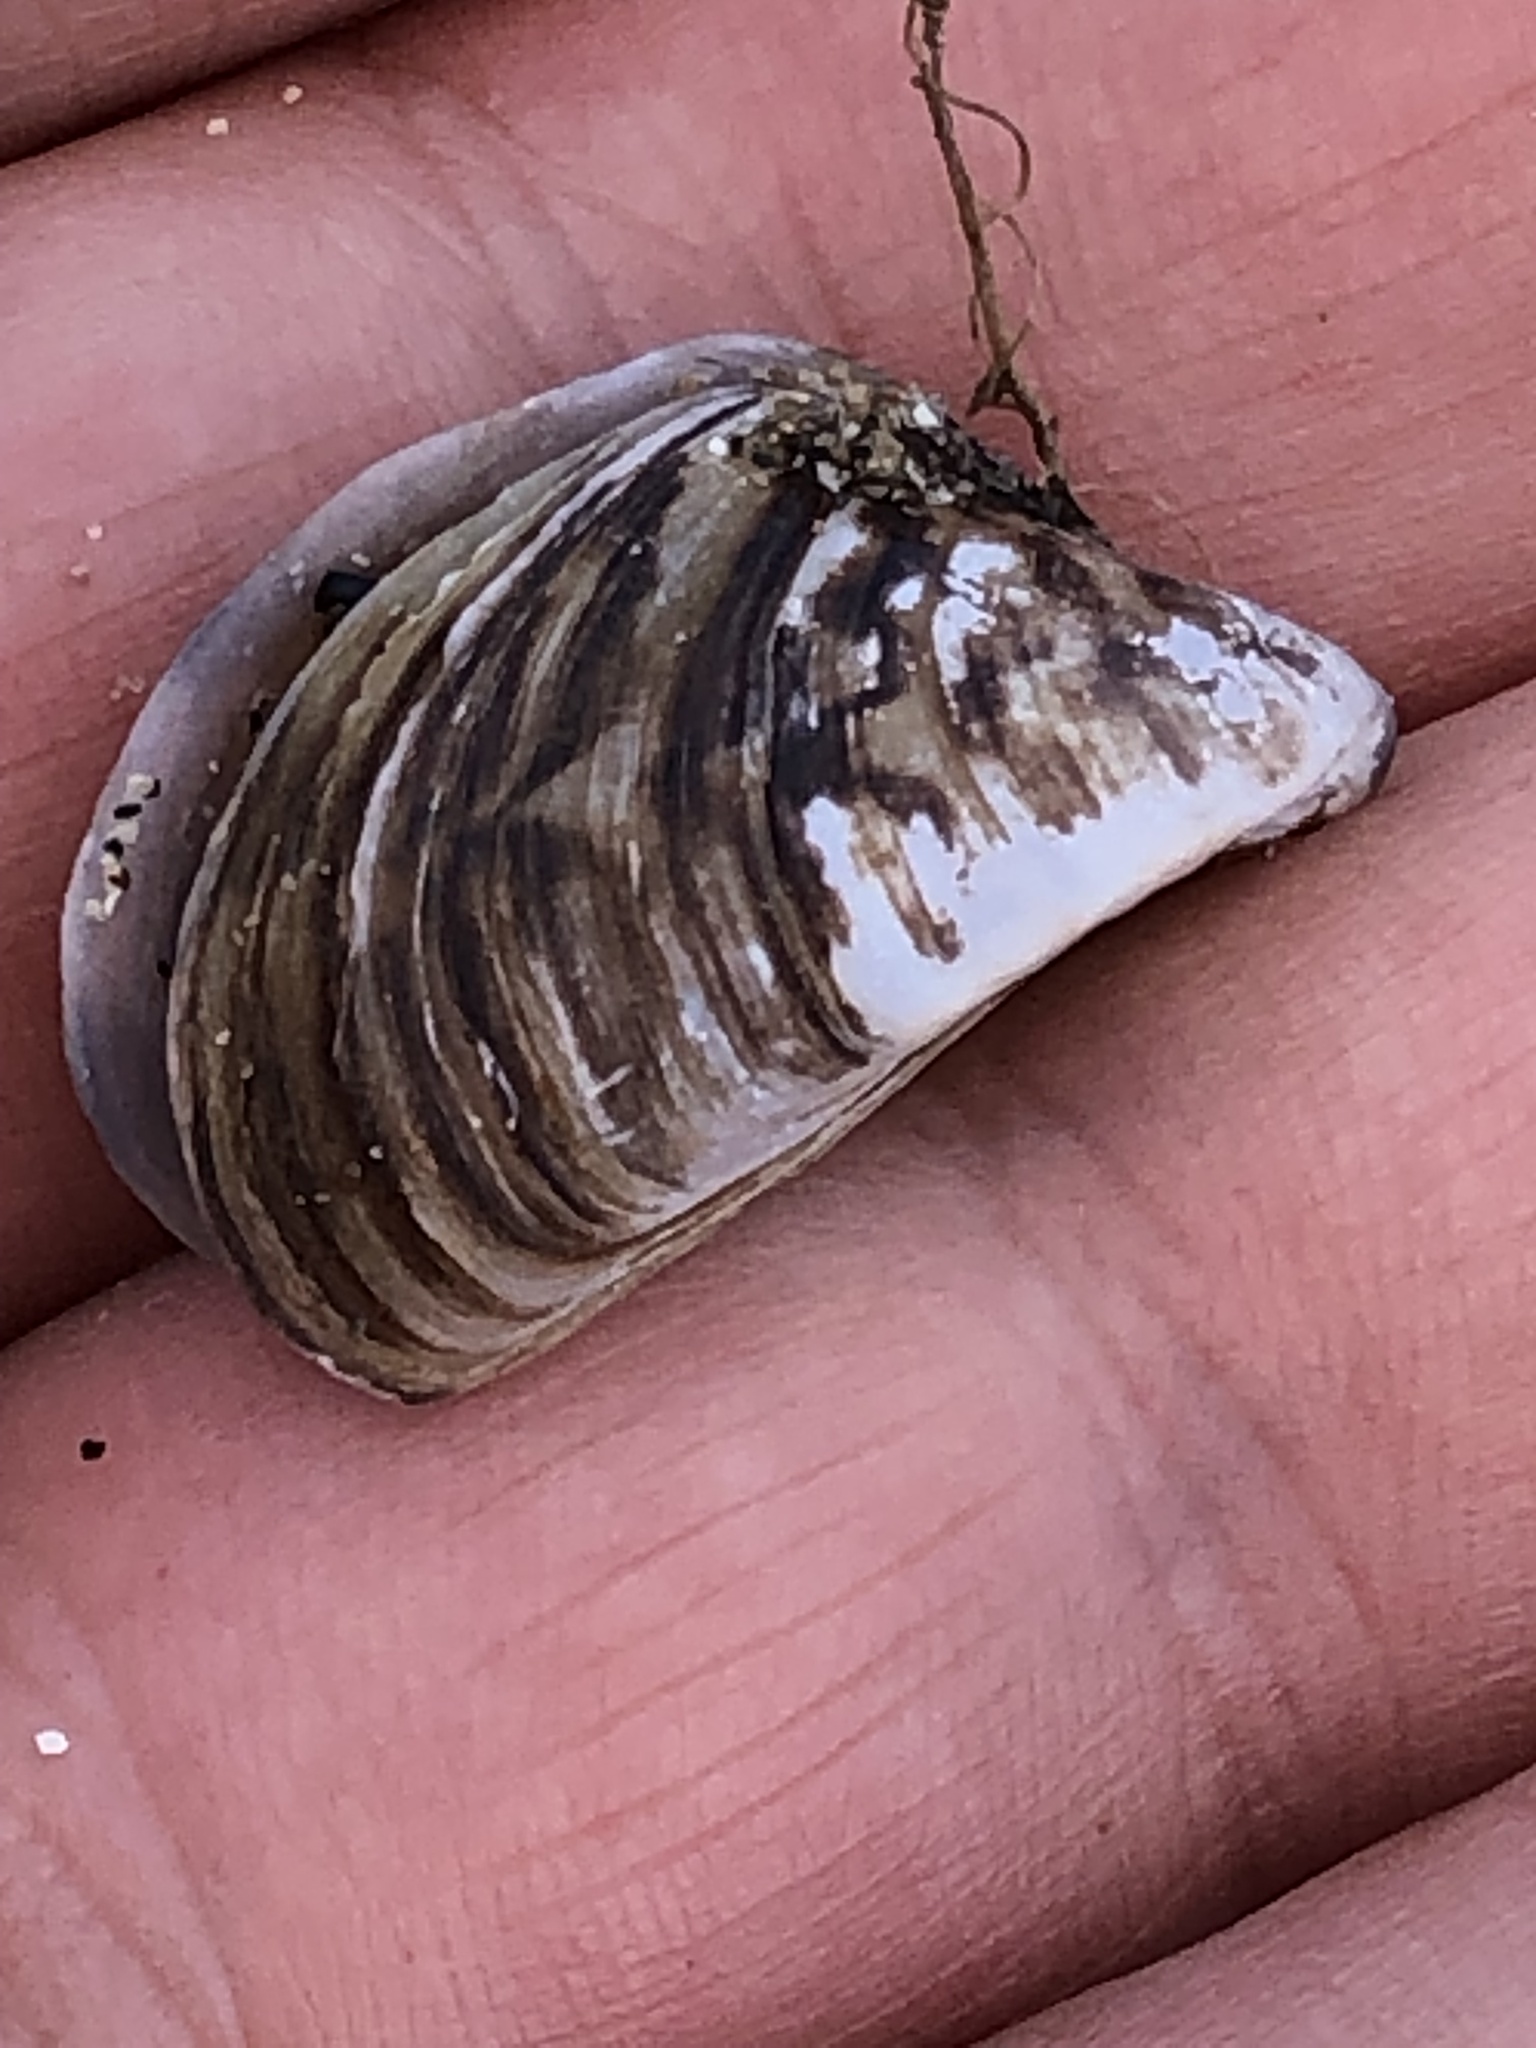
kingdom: Animalia
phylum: Mollusca
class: Bivalvia
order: Myida
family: Dreissenidae
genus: Dreissena
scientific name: Dreissena polymorpha
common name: Zebra mussel
